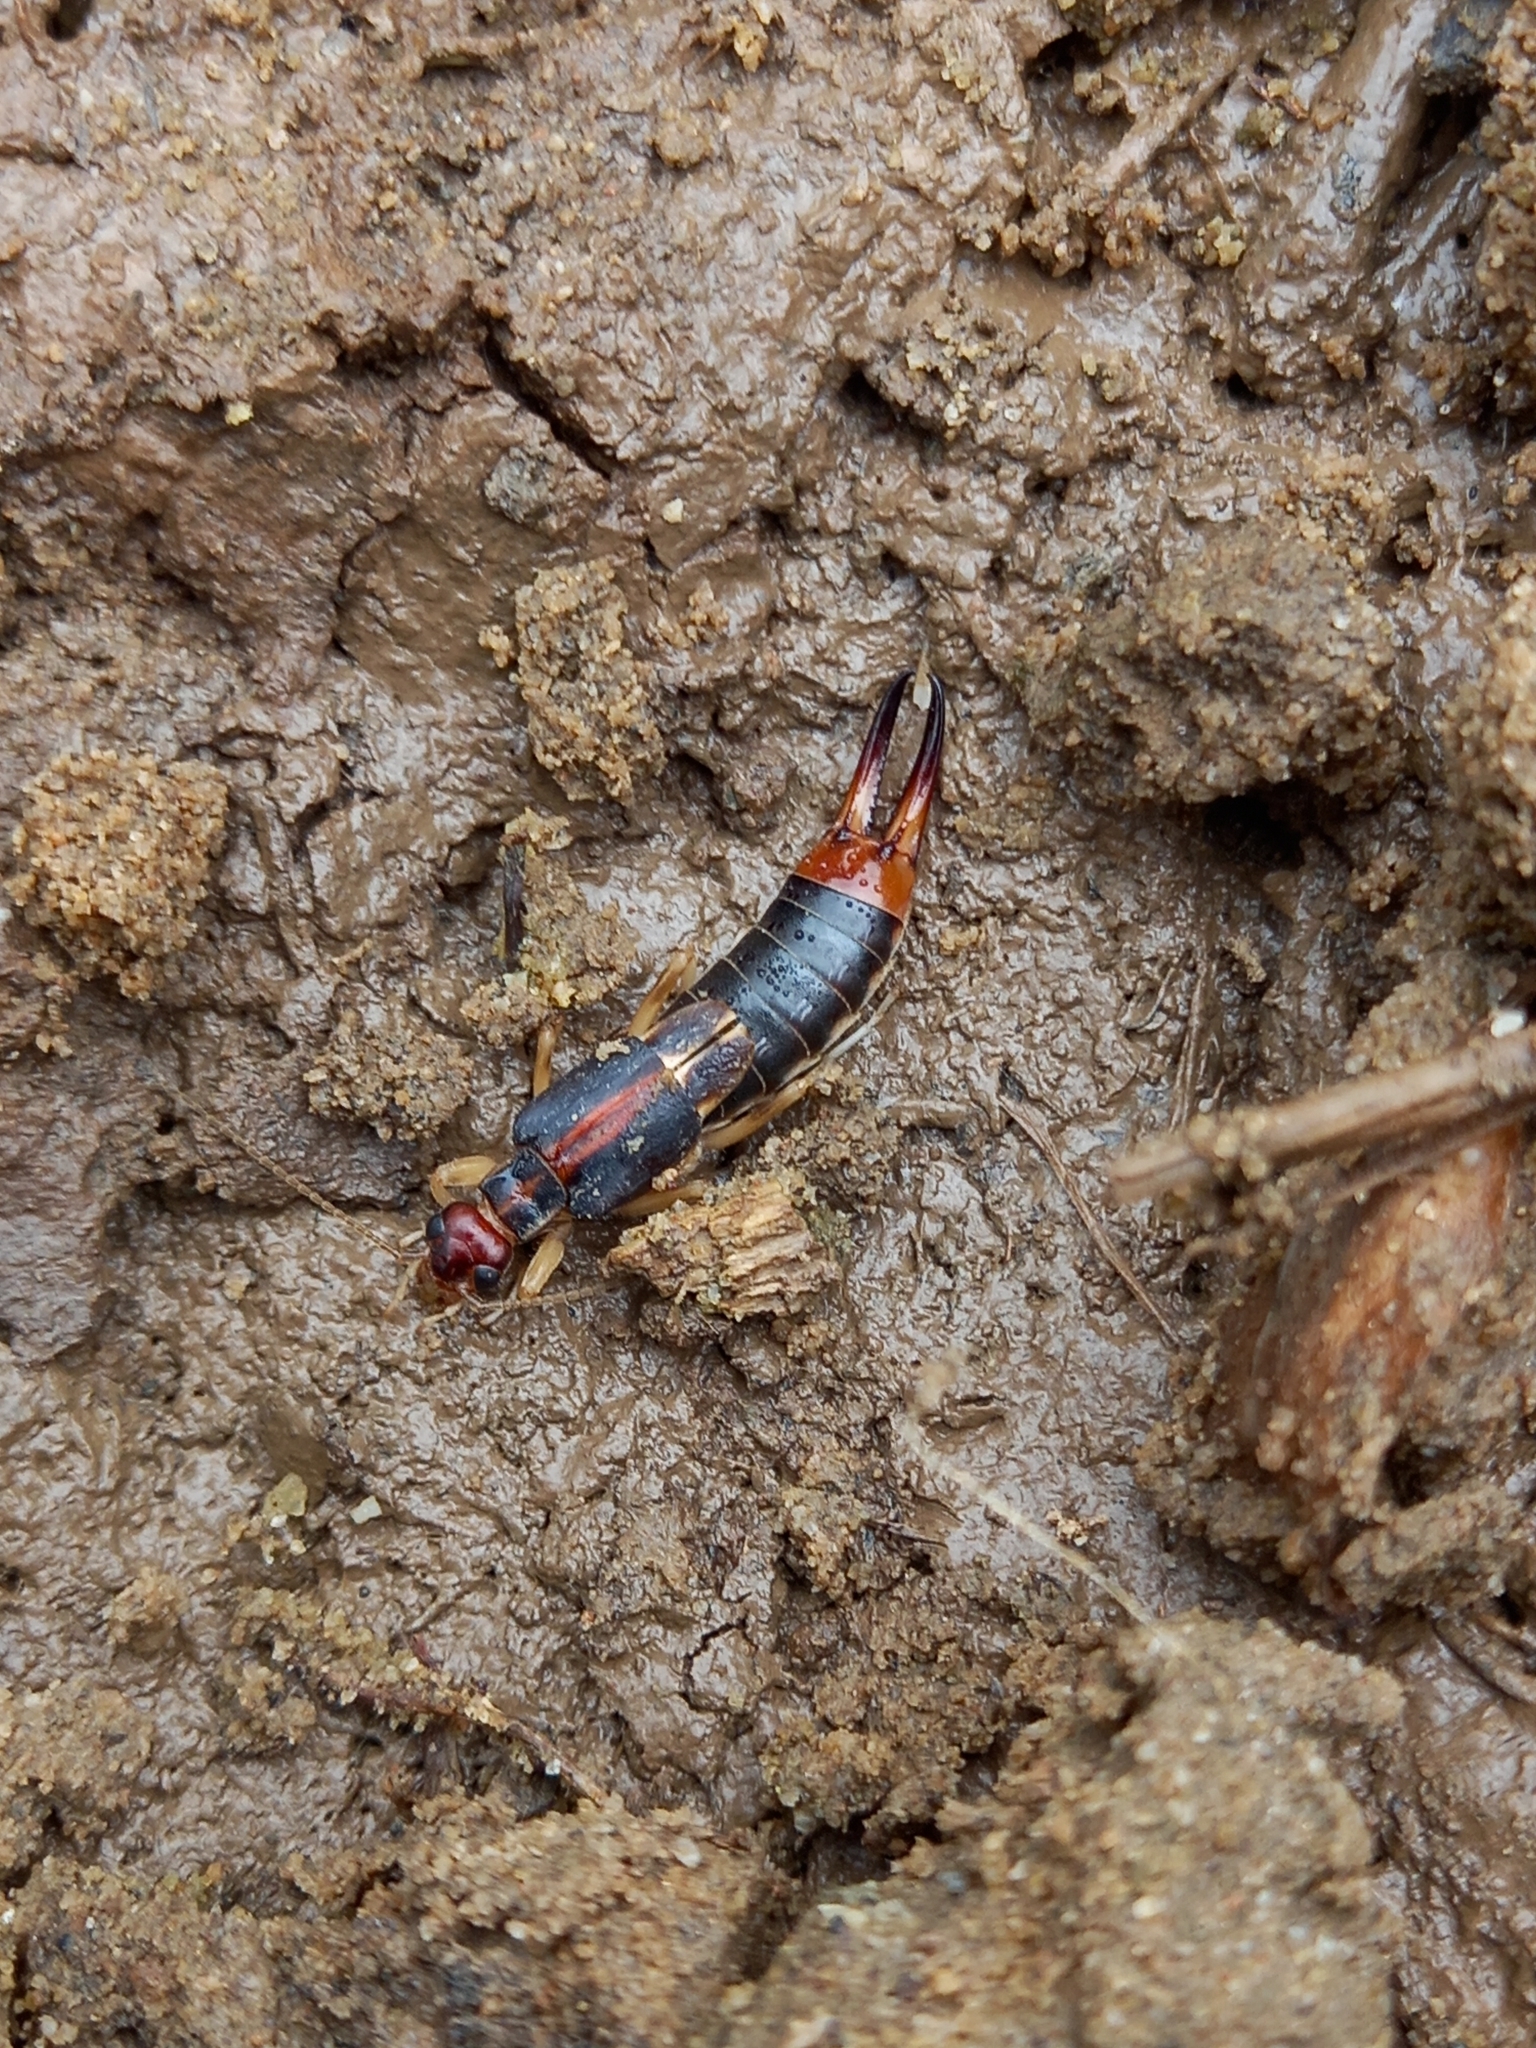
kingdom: Animalia
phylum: Arthropoda
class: Insecta
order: Dermaptera
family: Labiduridae
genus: Labidura
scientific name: Labidura riparia
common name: Striped earwig
